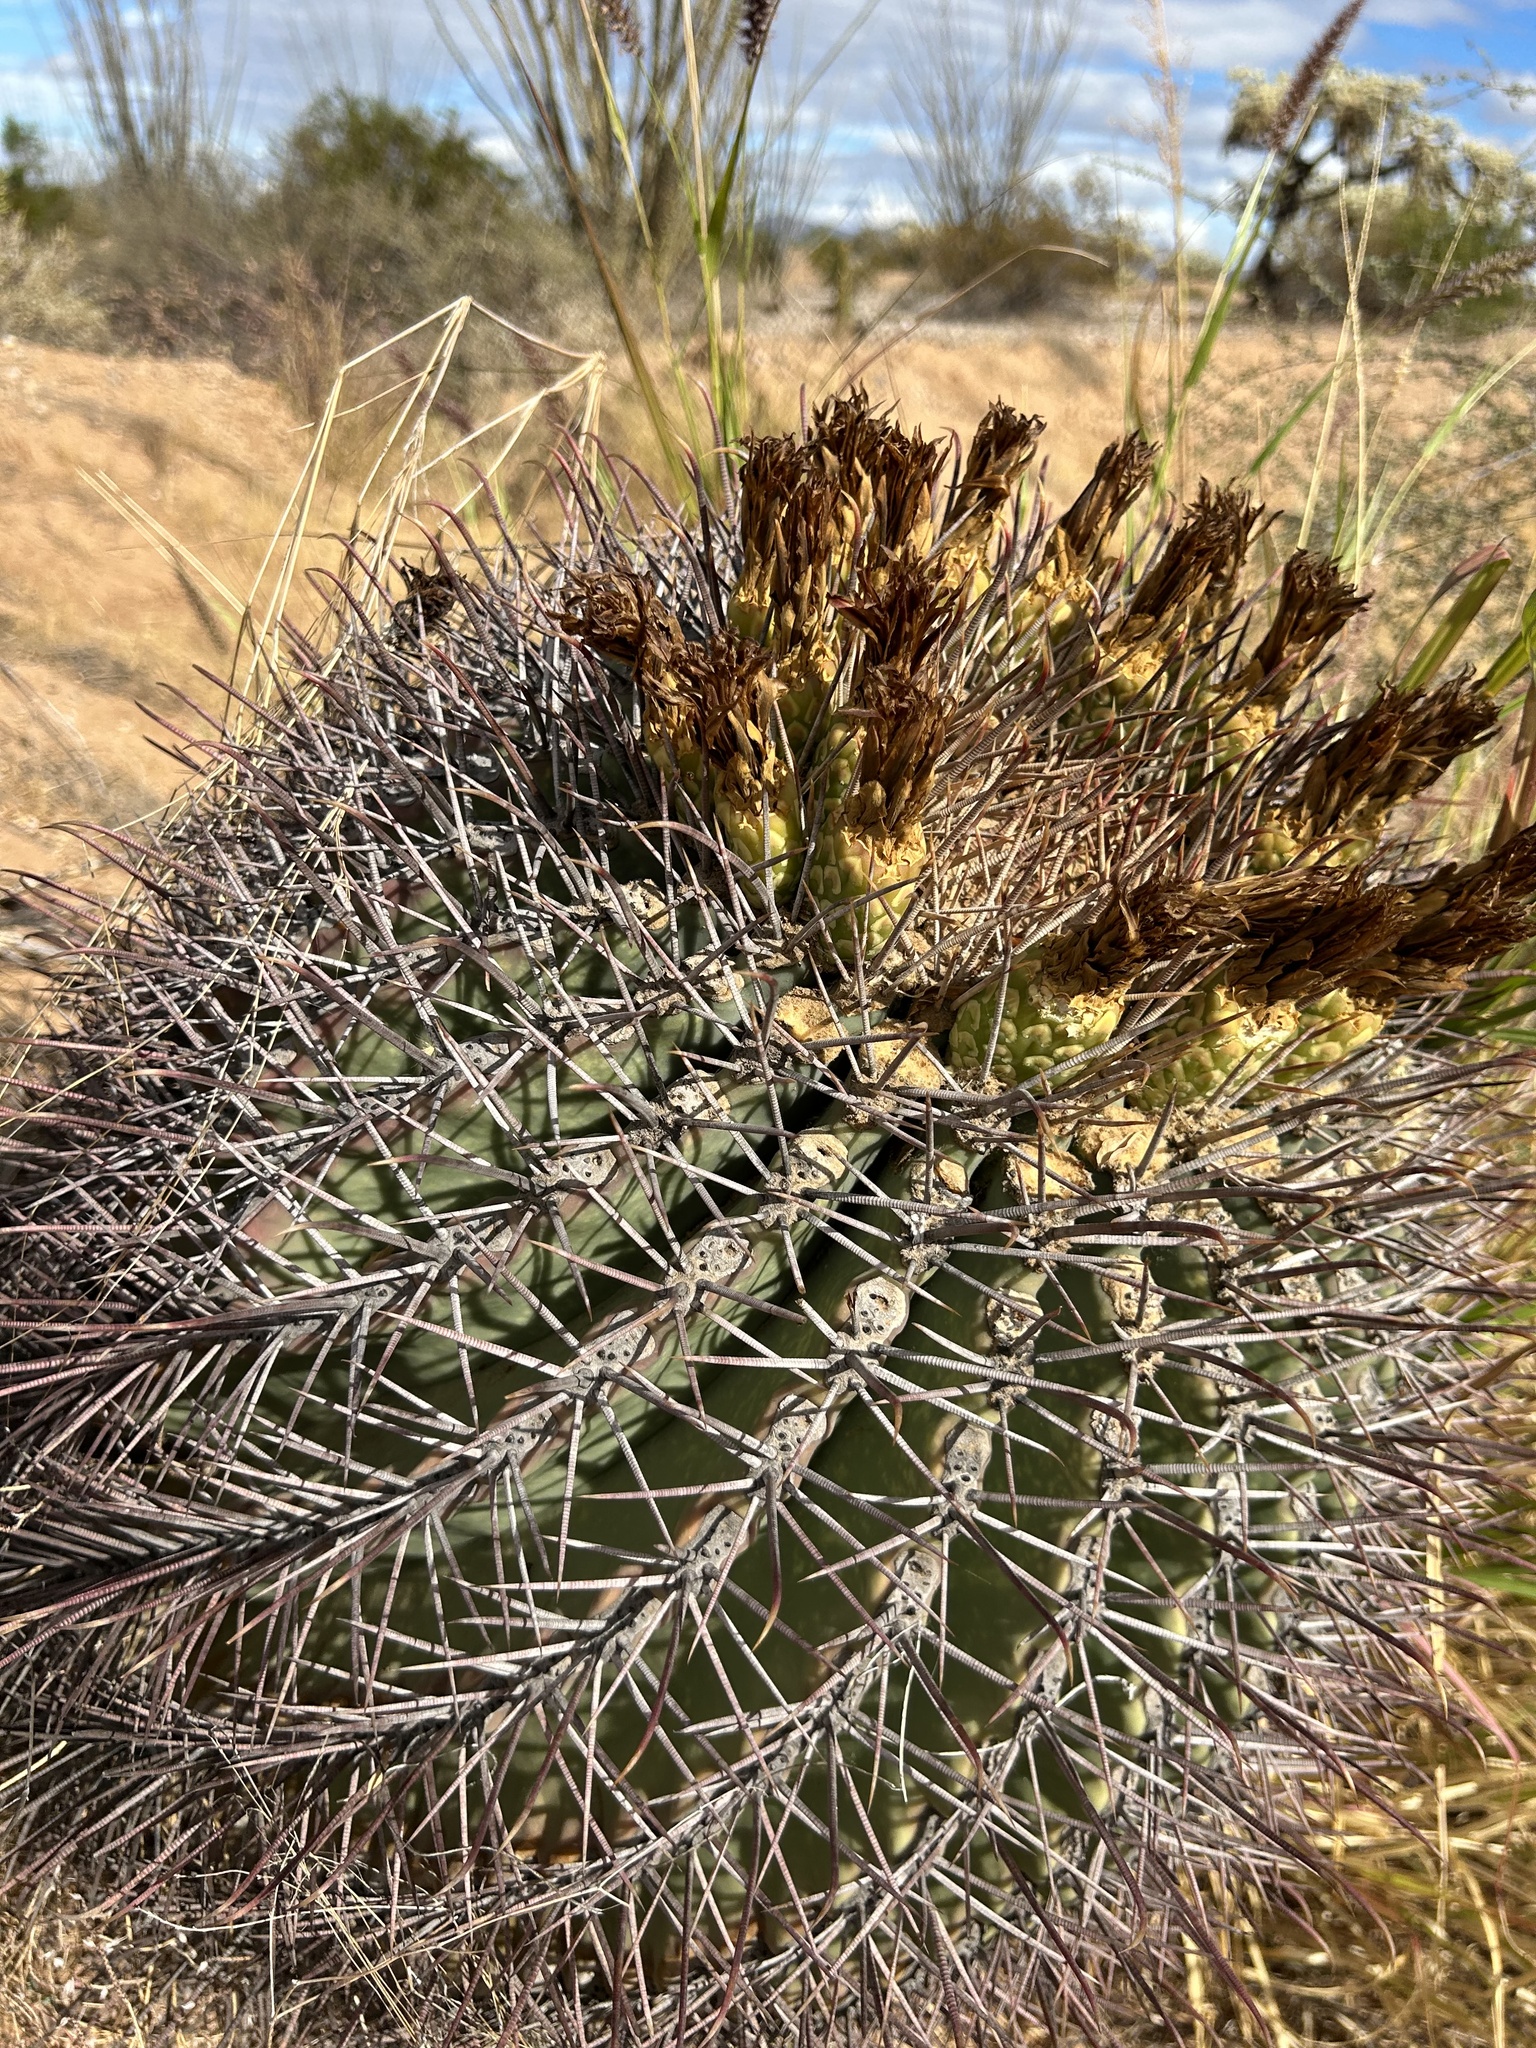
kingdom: Plantae
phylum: Tracheophyta
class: Magnoliopsida
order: Caryophyllales
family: Cactaceae
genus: Ferocactus
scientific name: Ferocactus emoryi
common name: Emory's barrel cactus
